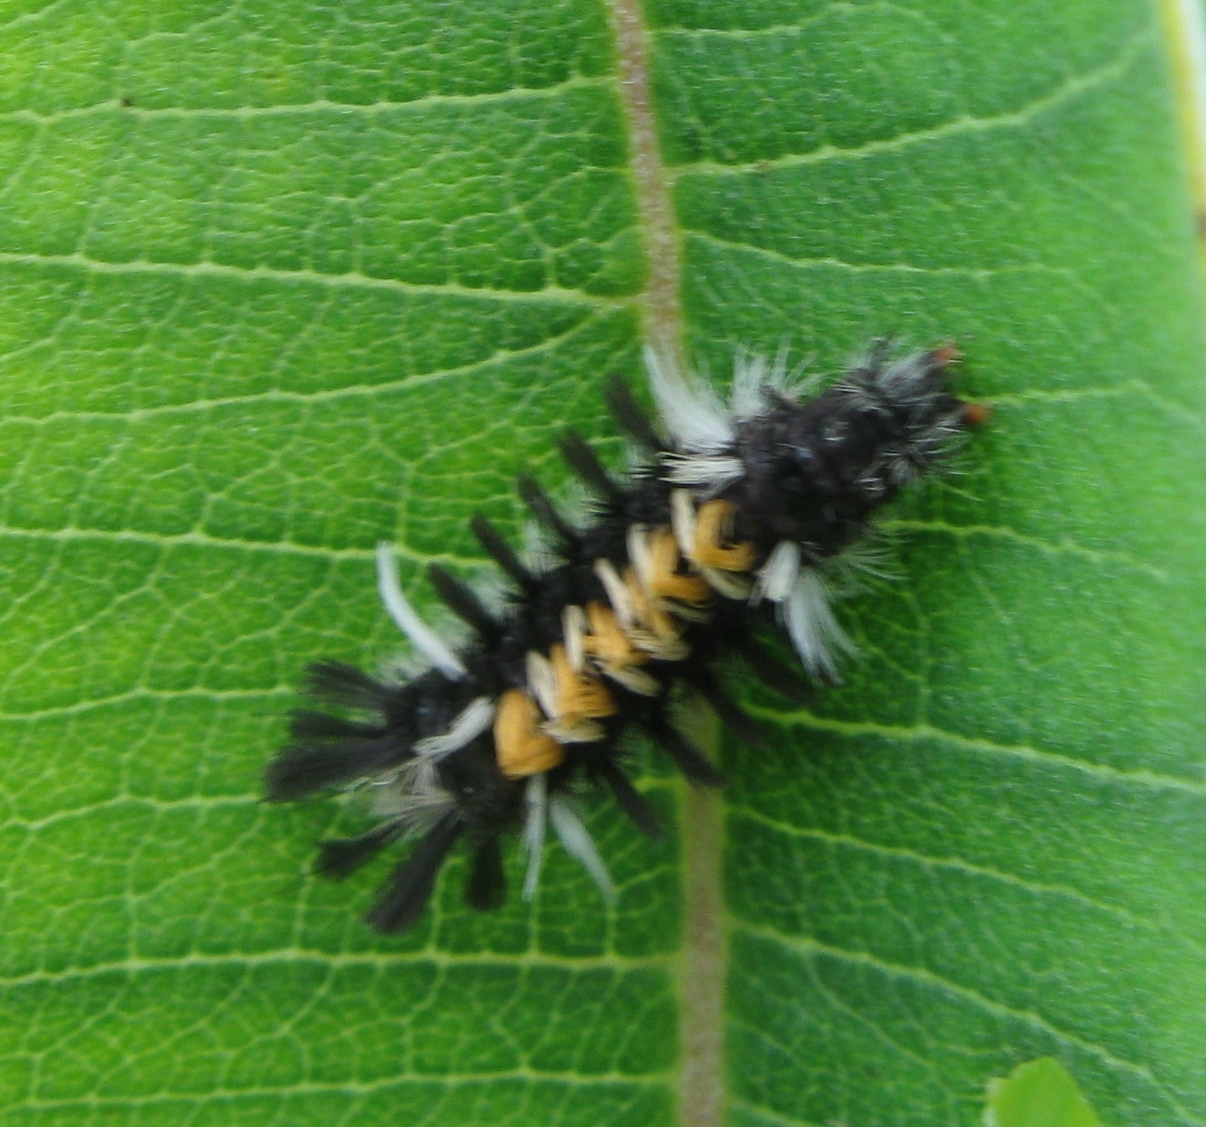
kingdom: Animalia
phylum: Arthropoda
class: Insecta
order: Lepidoptera
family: Erebidae
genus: Euchaetes
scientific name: Euchaetes egle
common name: Milkweed tussock moth
